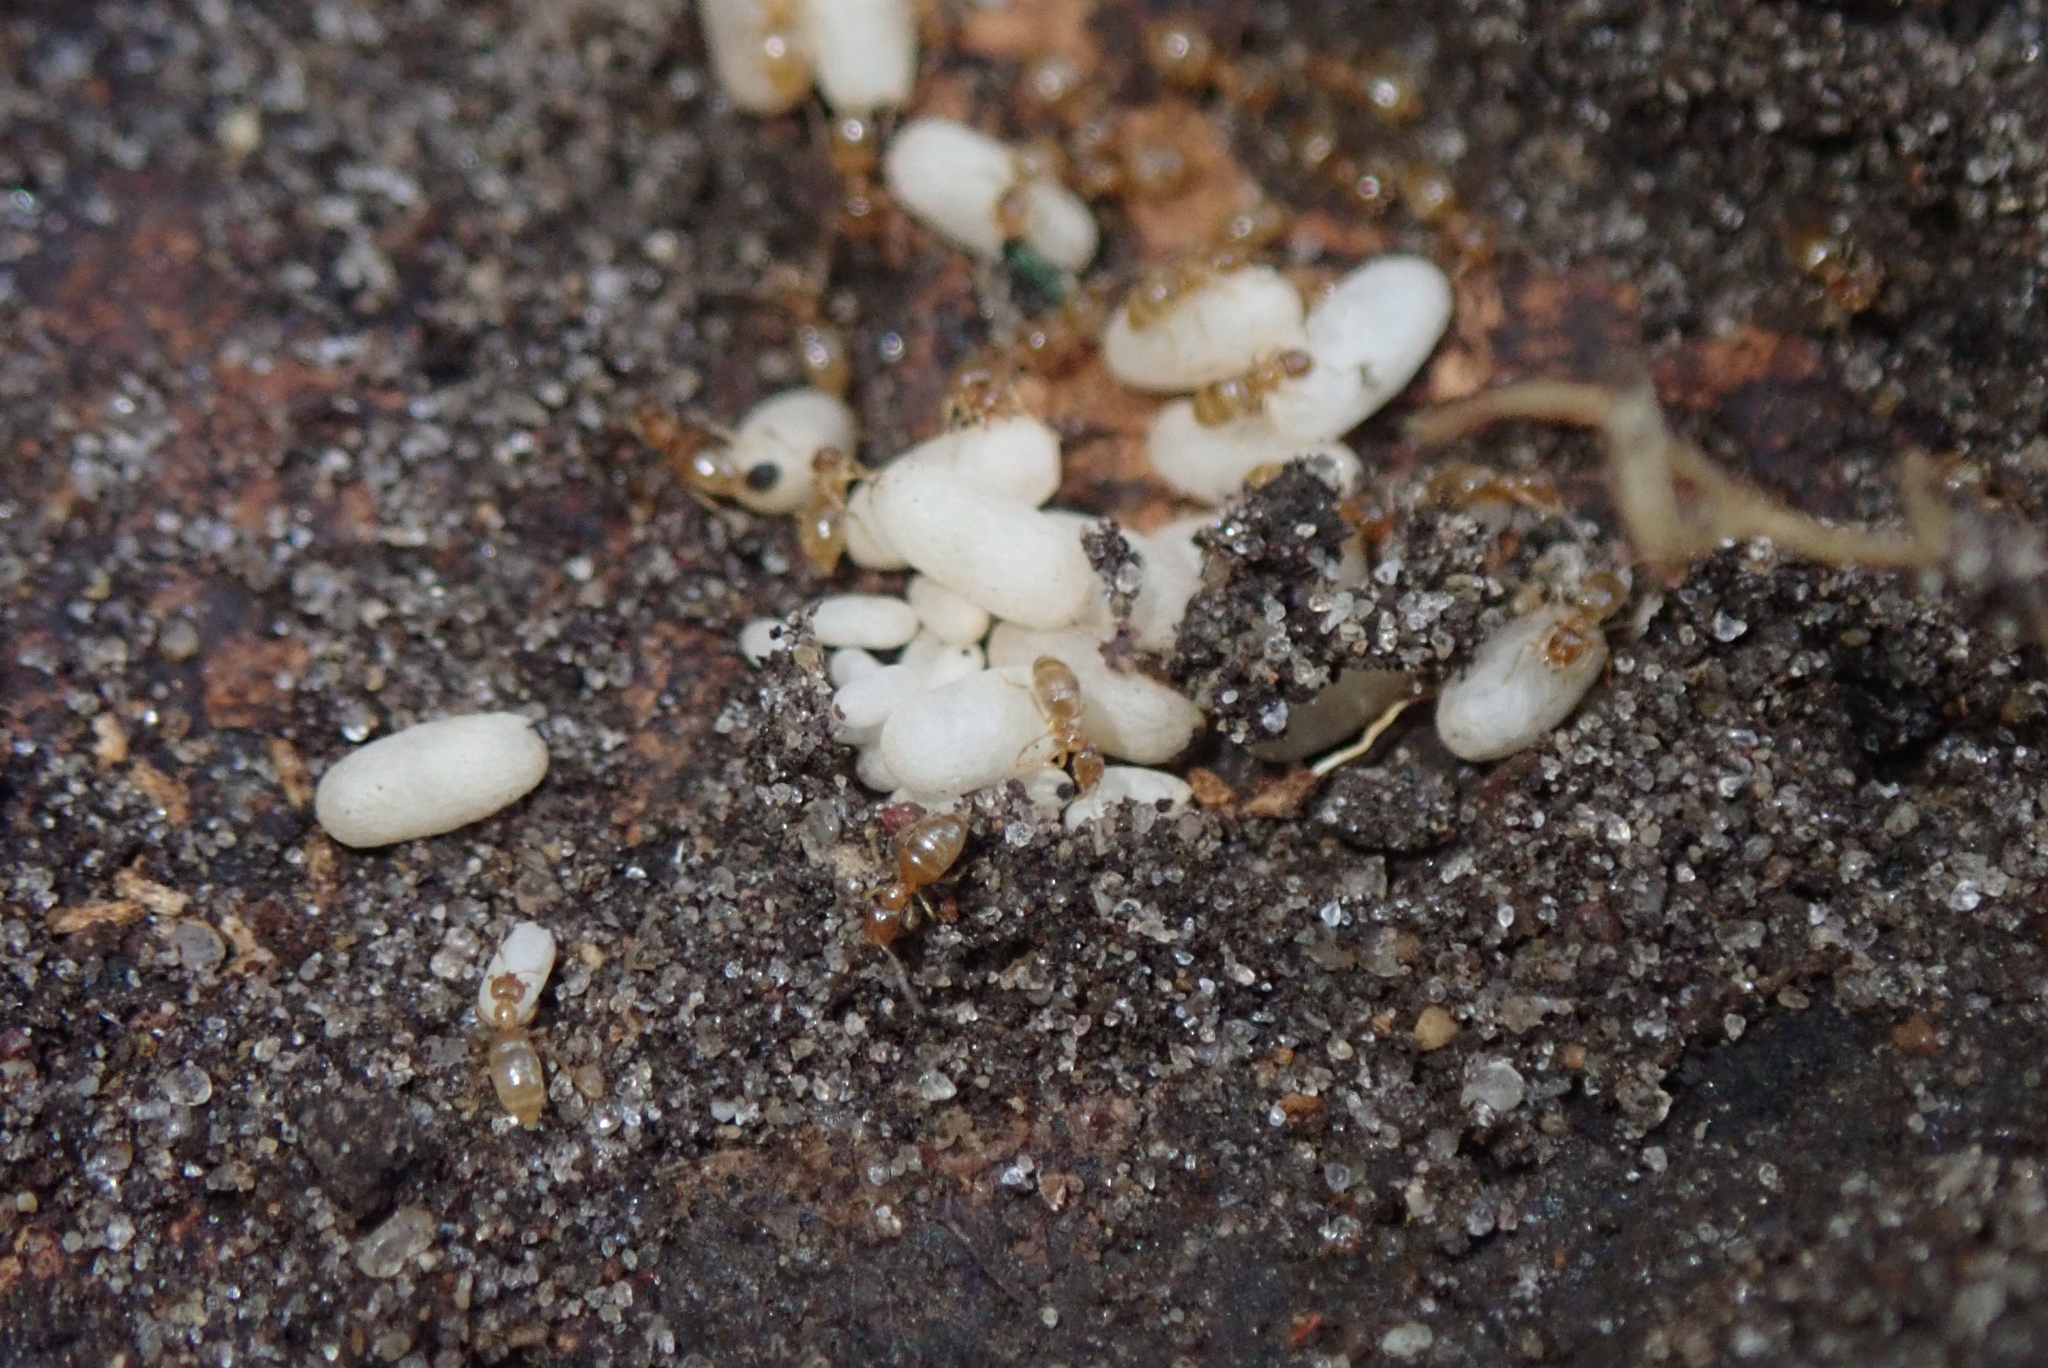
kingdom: Animalia
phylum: Arthropoda
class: Insecta
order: Hymenoptera
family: Formicidae
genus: Brachymyrmex
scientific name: Brachymyrmex depilis
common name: Hairless rover ant
